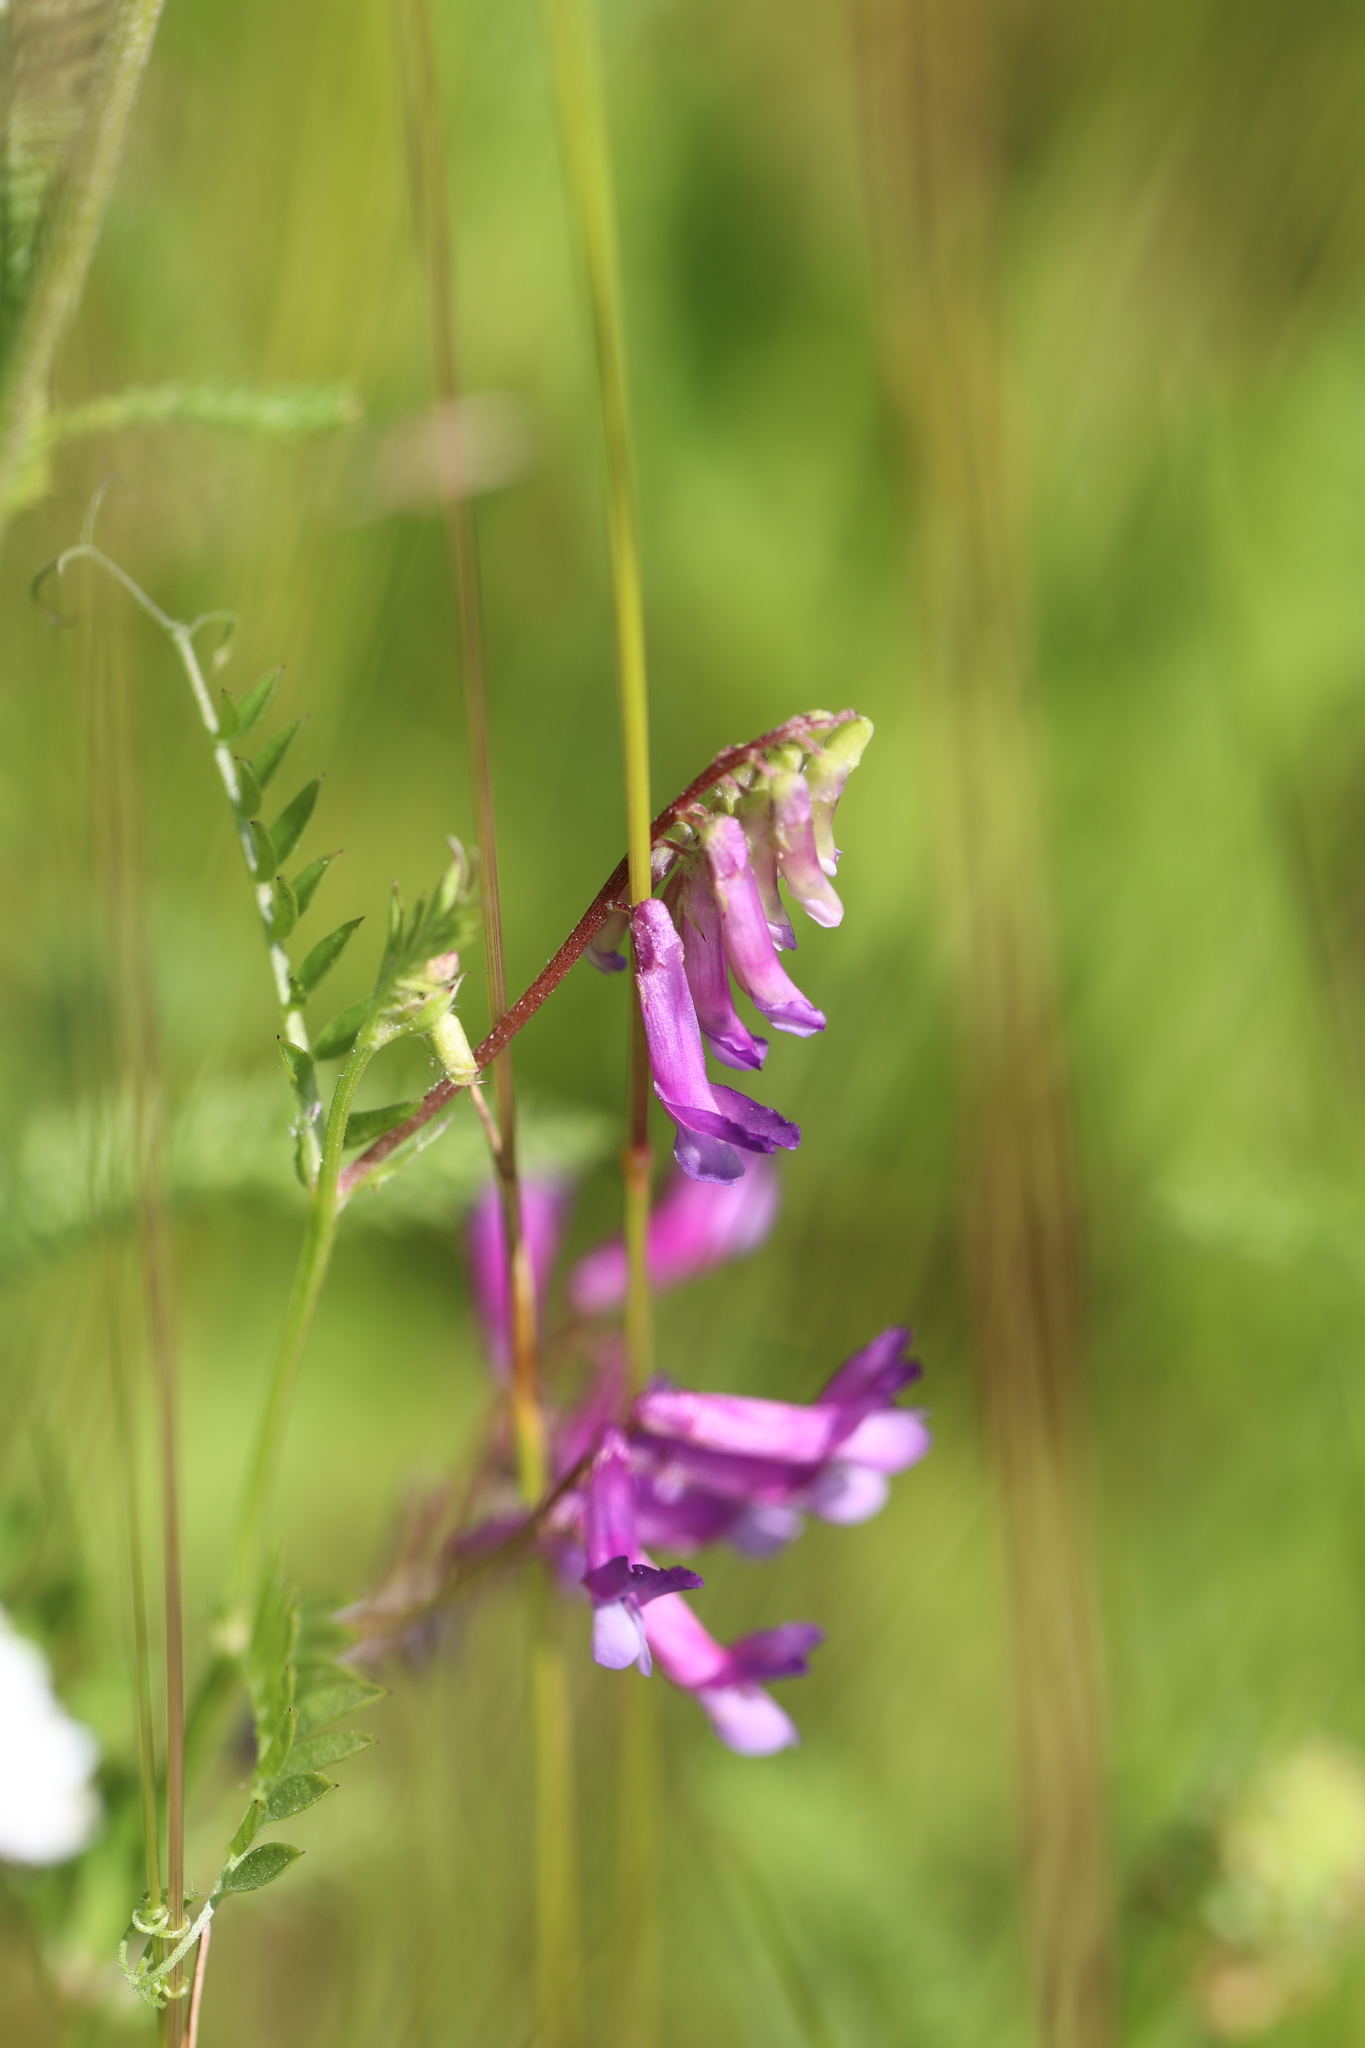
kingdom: Plantae
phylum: Tracheophyta
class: Magnoliopsida
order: Fabales
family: Fabaceae
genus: Vicia
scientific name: Vicia villosa
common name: Fodder vetch
